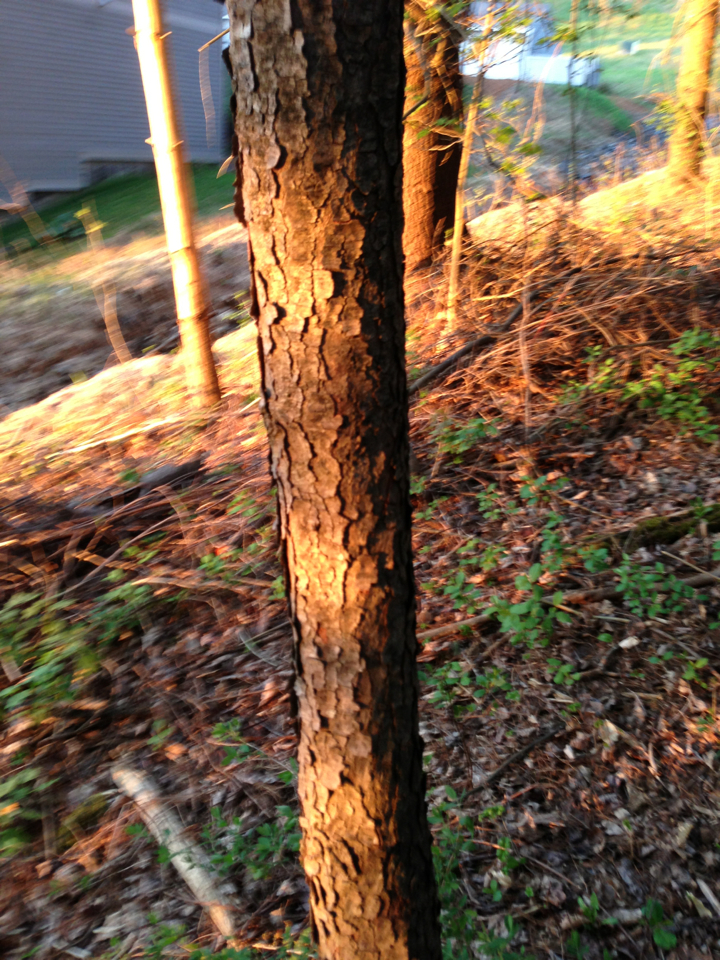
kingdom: Plantae
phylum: Tracheophyta
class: Magnoliopsida
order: Rosales
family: Rosaceae
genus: Prunus
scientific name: Prunus serotina
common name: Black cherry
